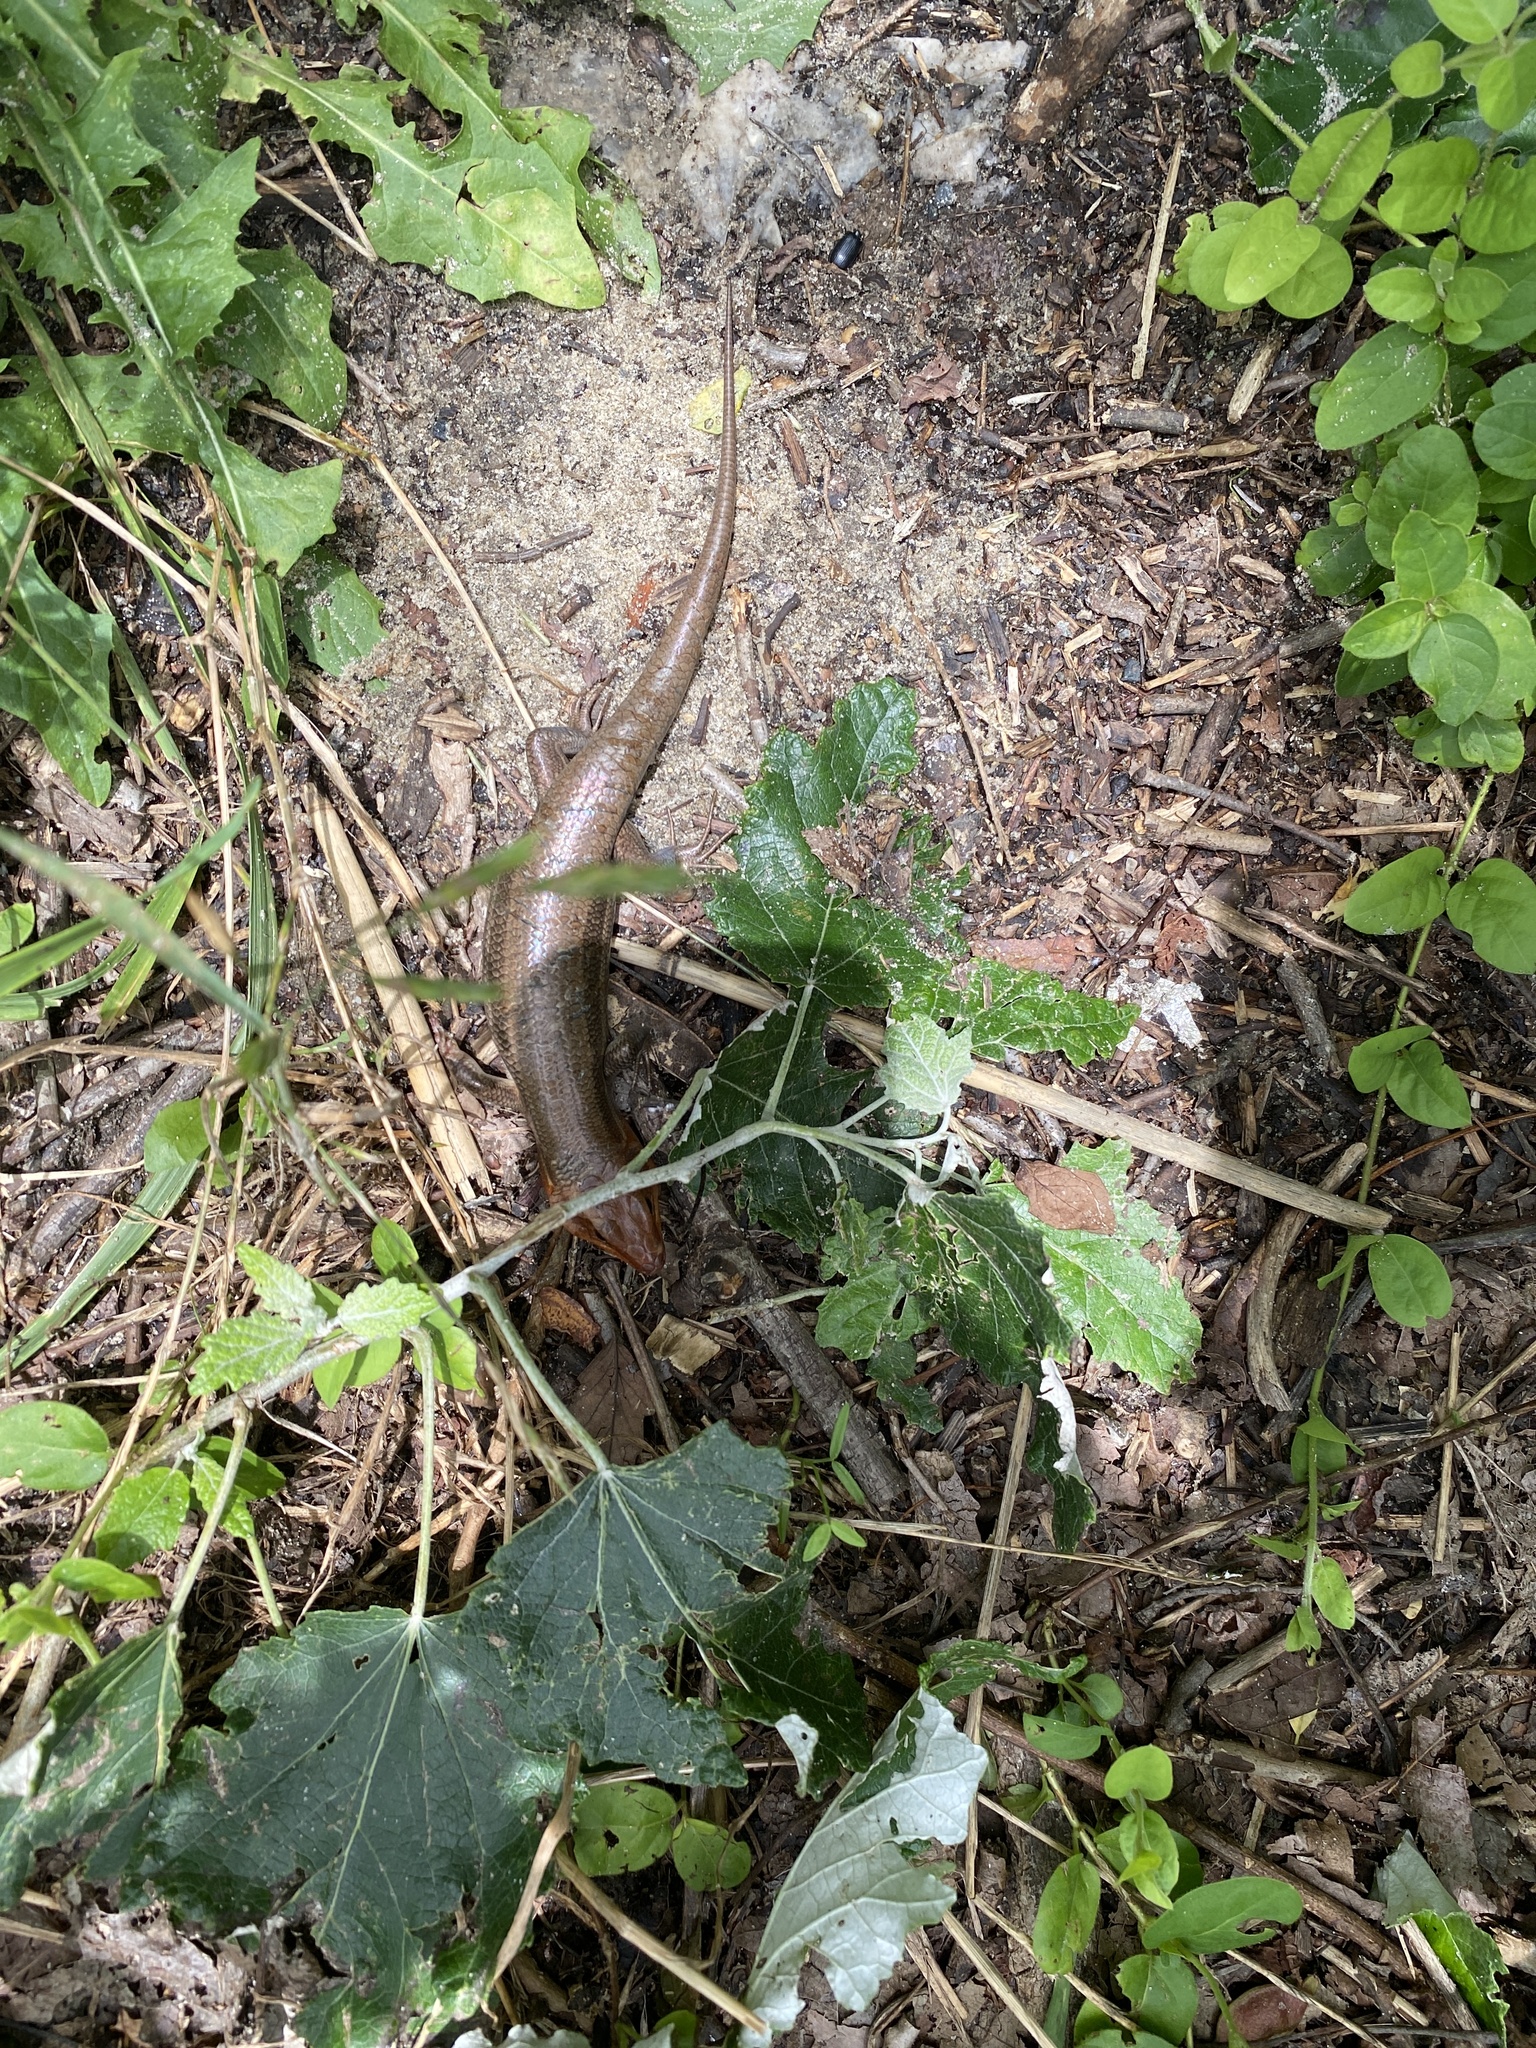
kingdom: Animalia
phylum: Chordata
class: Squamata
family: Scincidae
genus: Plestiodon
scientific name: Plestiodon laticeps
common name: Broadhead skink
